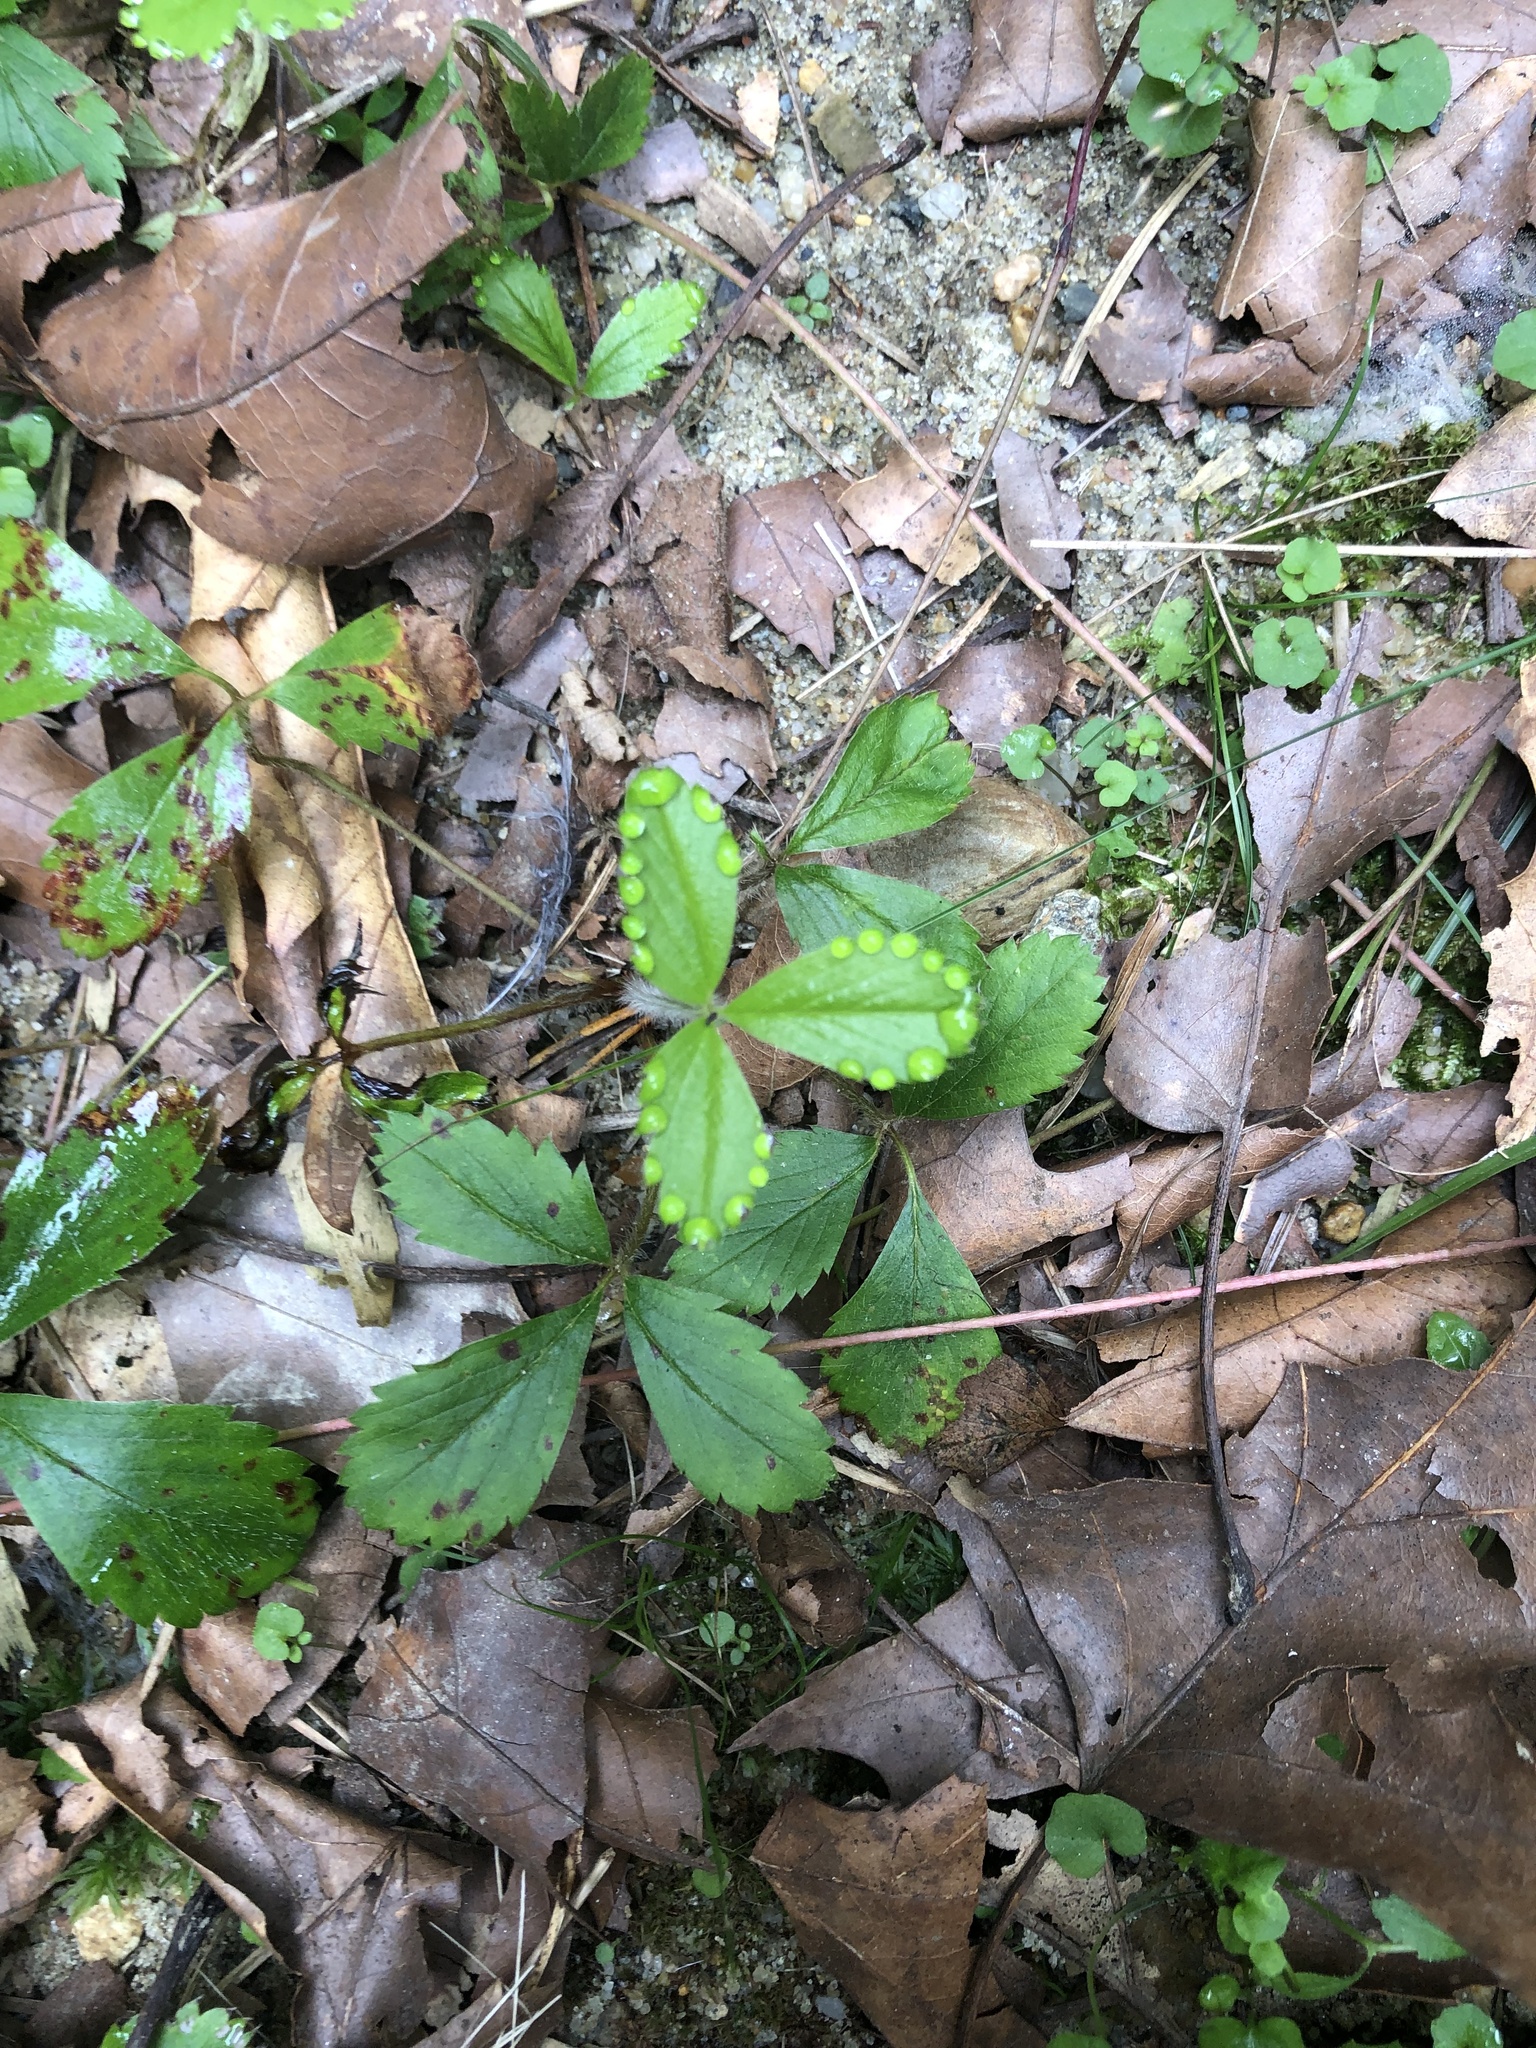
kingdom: Plantae
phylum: Tracheophyta
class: Magnoliopsida
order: Rosales
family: Rosaceae
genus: Rubus
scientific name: Rubus flagellaris
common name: American dewberry
